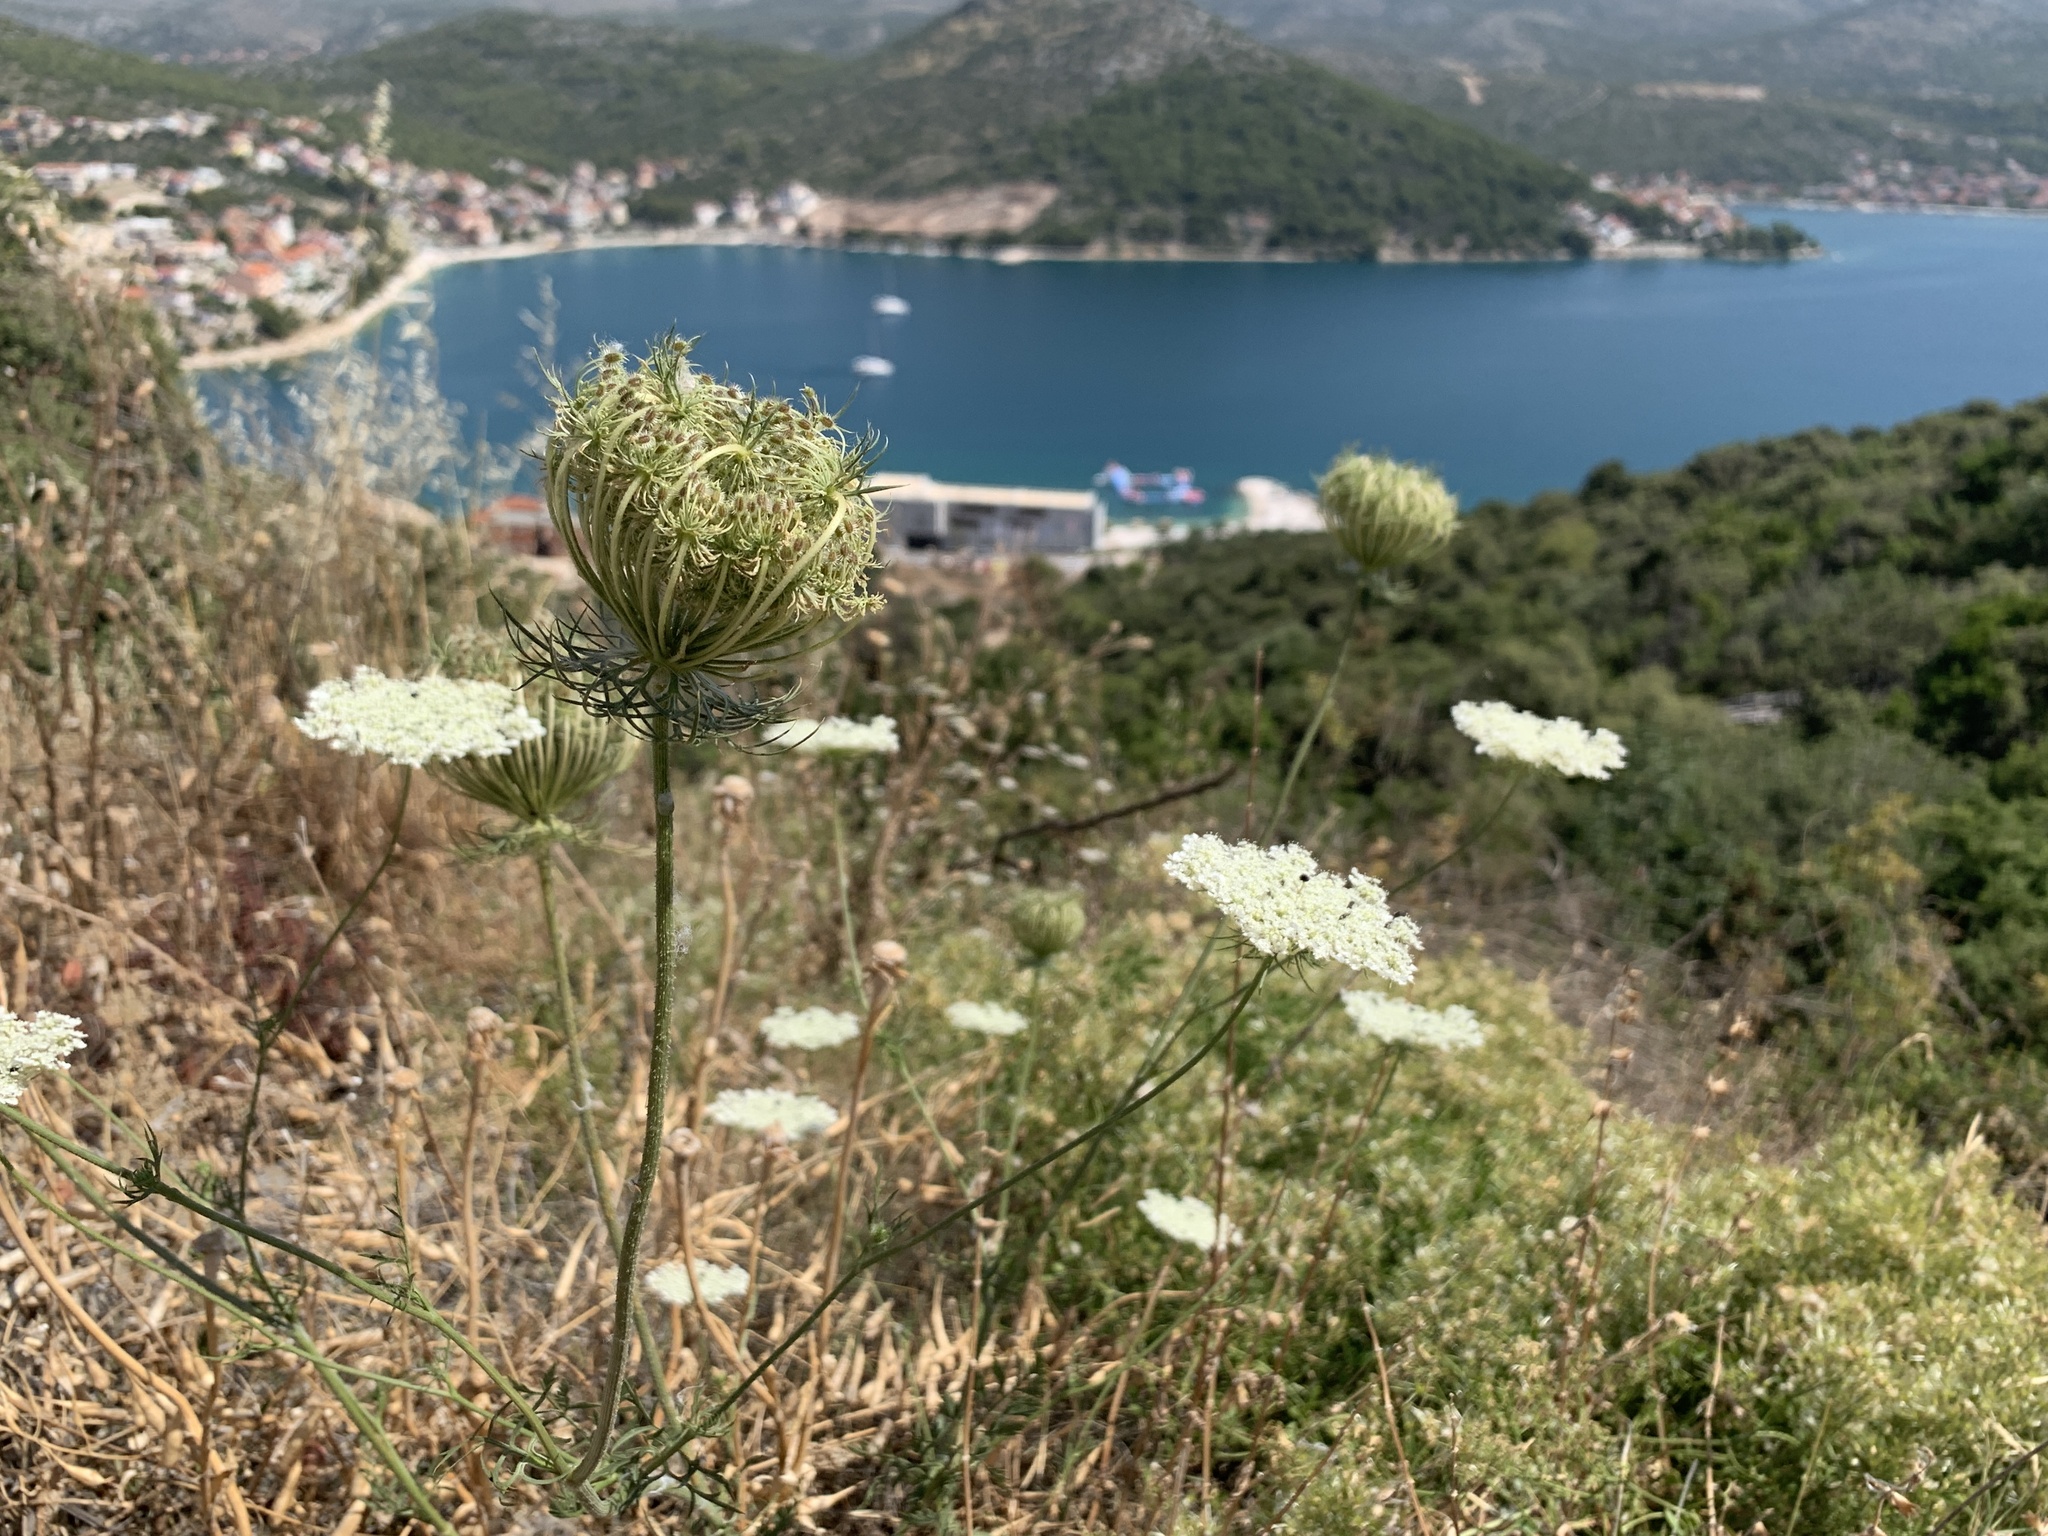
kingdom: Plantae
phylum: Tracheophyta
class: Magnoliopsida
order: Apiales
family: Apiaceae
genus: Daucus
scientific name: Daucus carota
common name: Wild carrot
